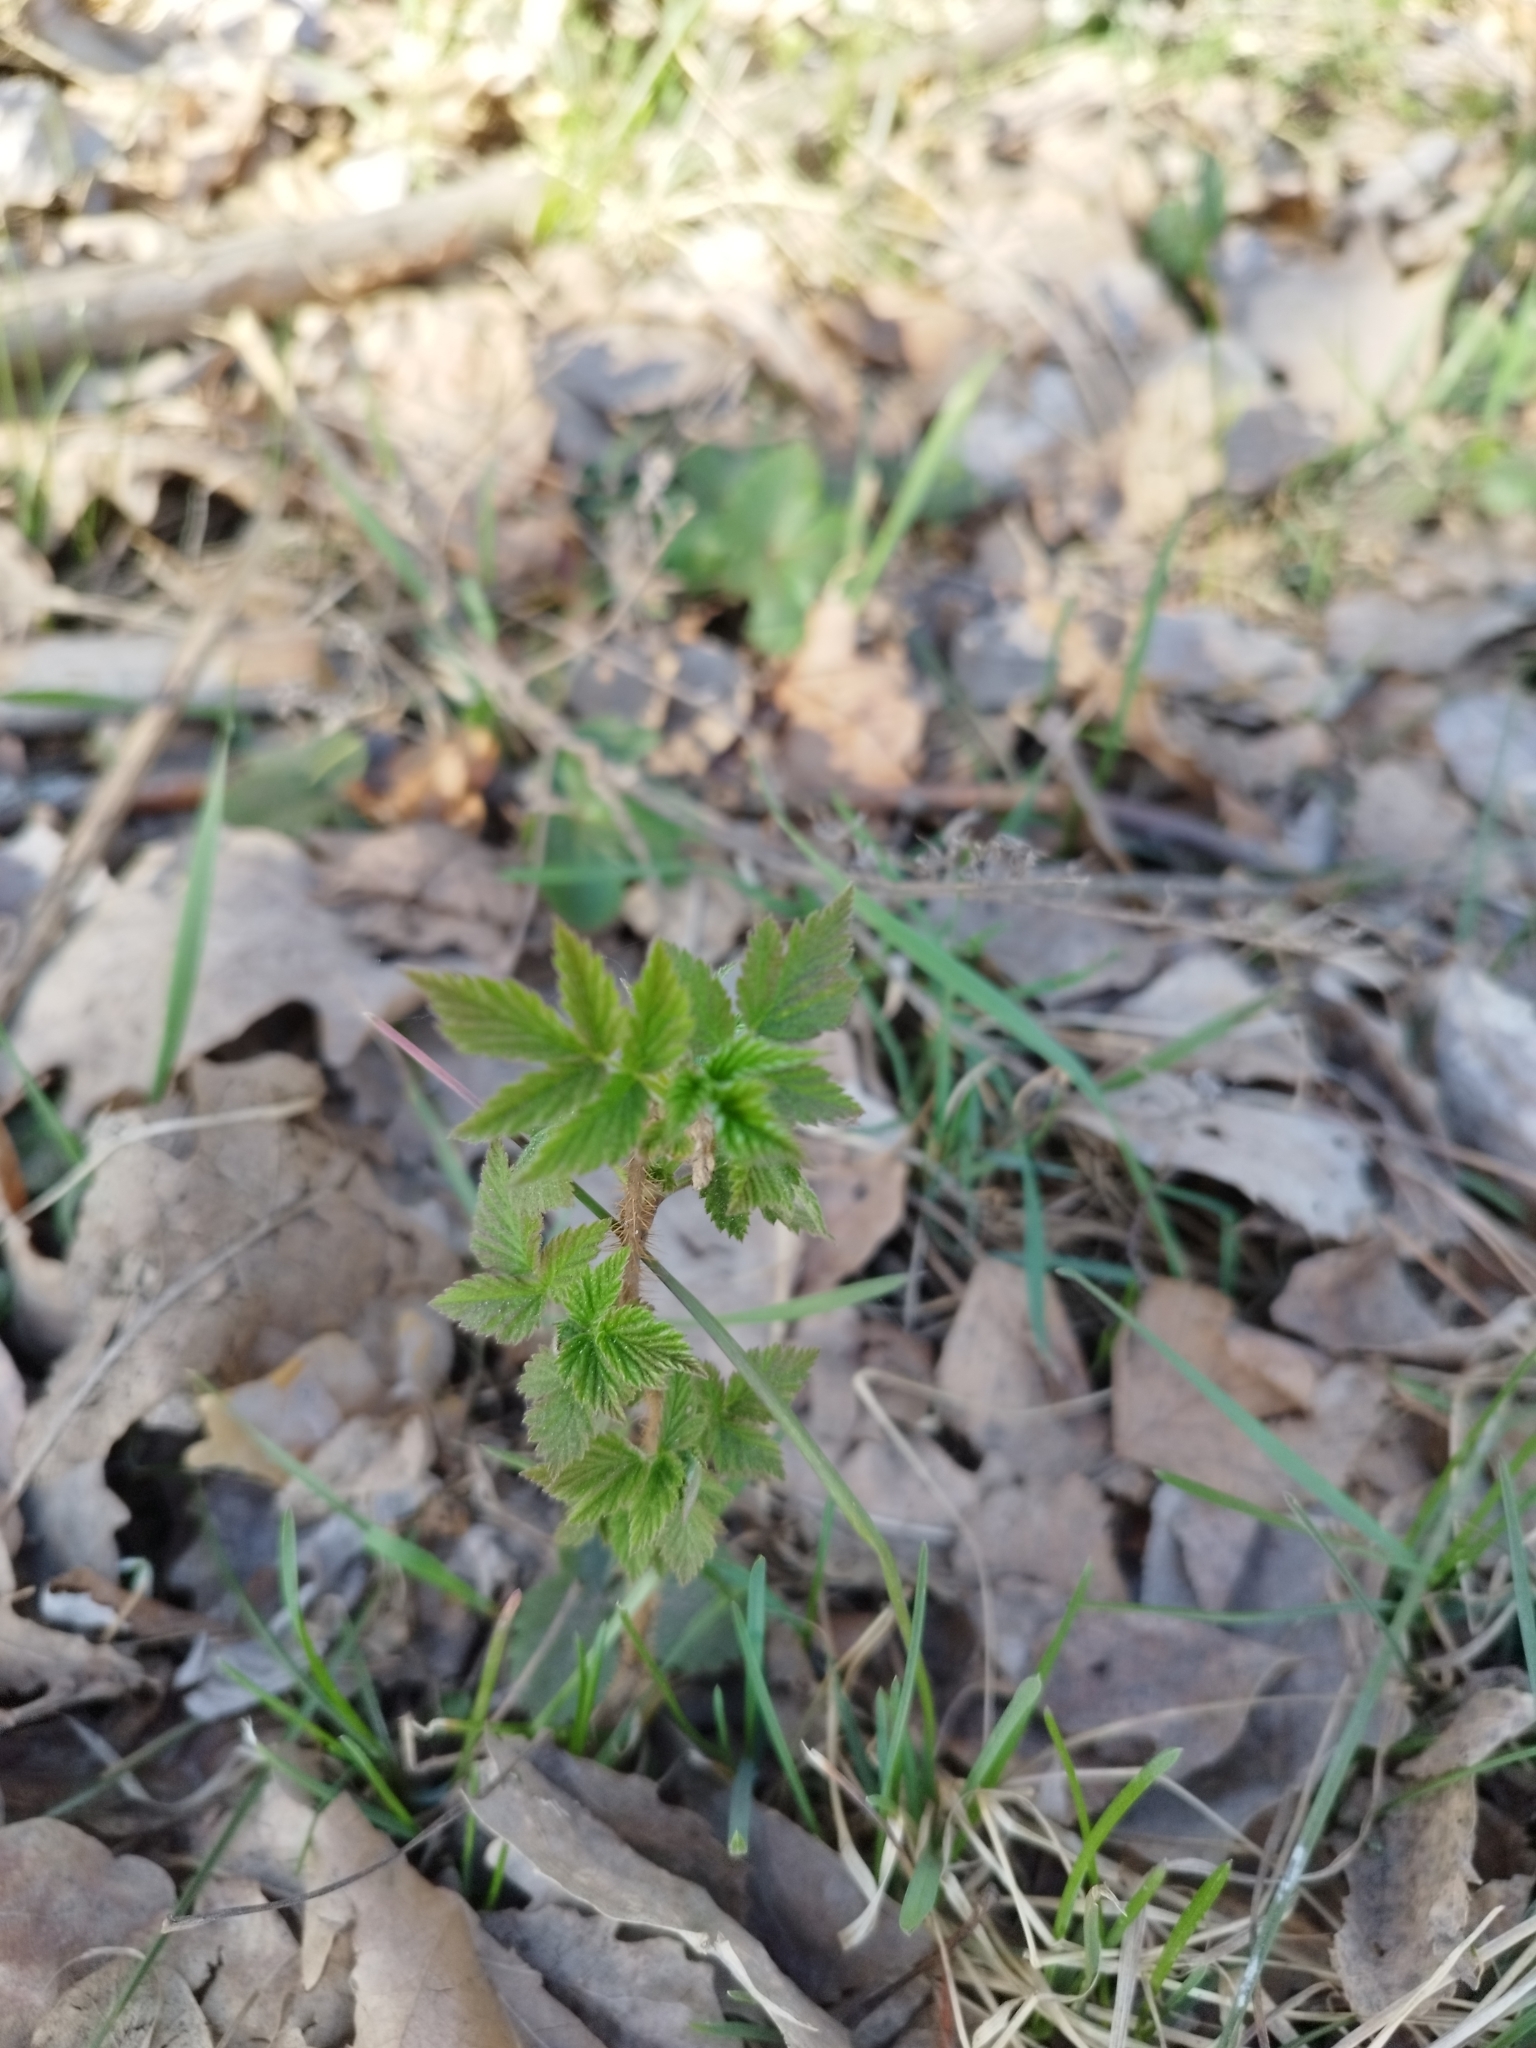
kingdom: Plantae
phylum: Tracheophyta
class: Magnoliopsida
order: Rosales
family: Rosaceae
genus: Rubus
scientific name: Rubus idaeus
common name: Raspberry
